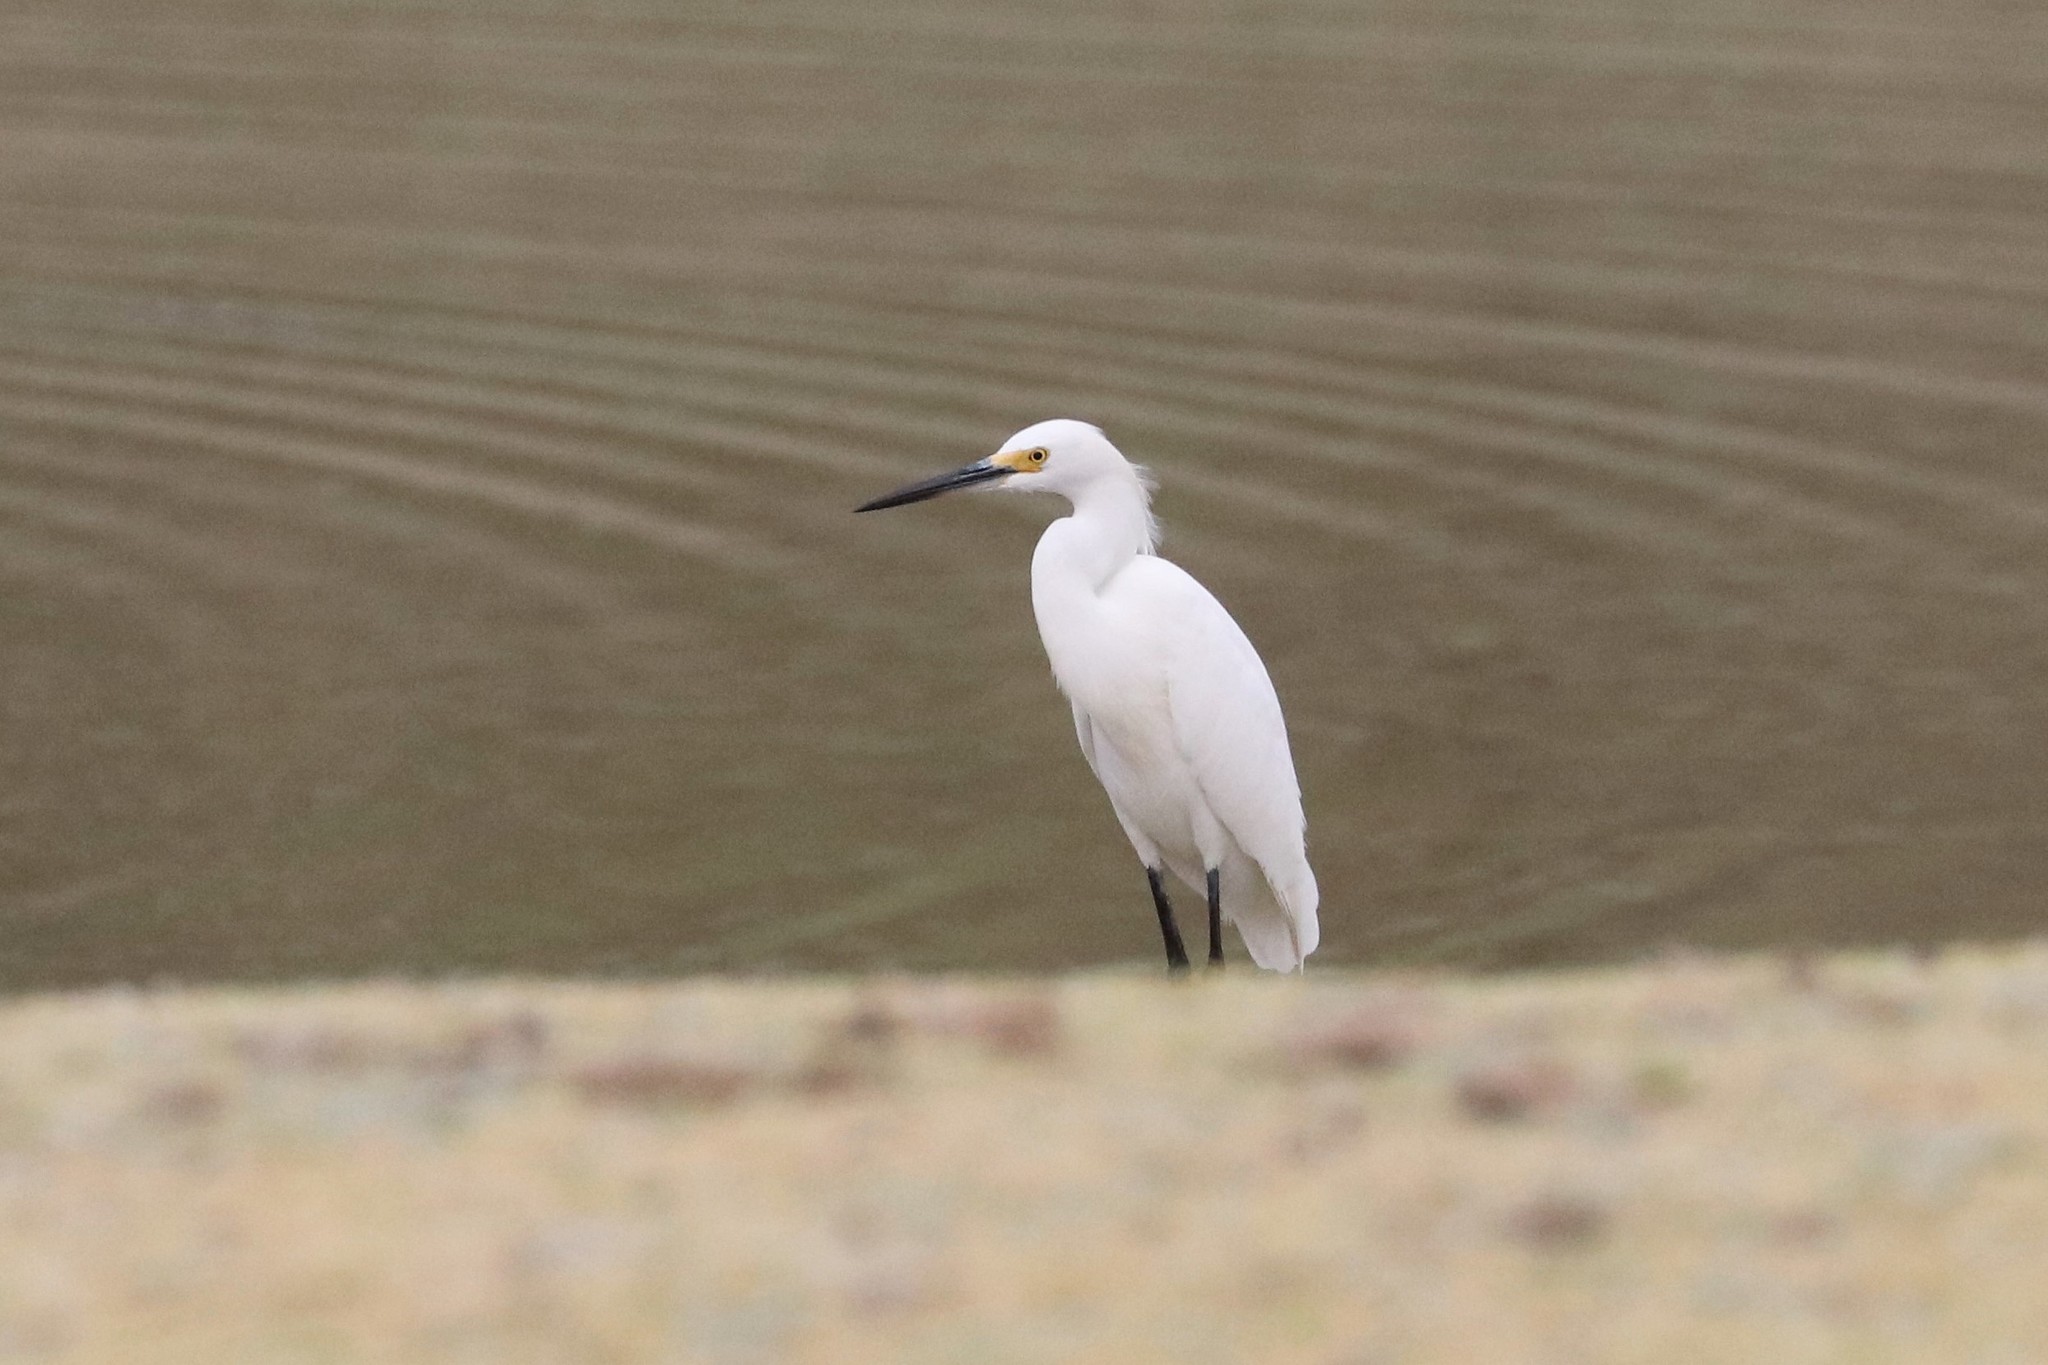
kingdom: Animalia
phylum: Chordata
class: Aves
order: Pelecaniformes
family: Ardeidae
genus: Egretta
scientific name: Egretta thula
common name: Snowy egret
